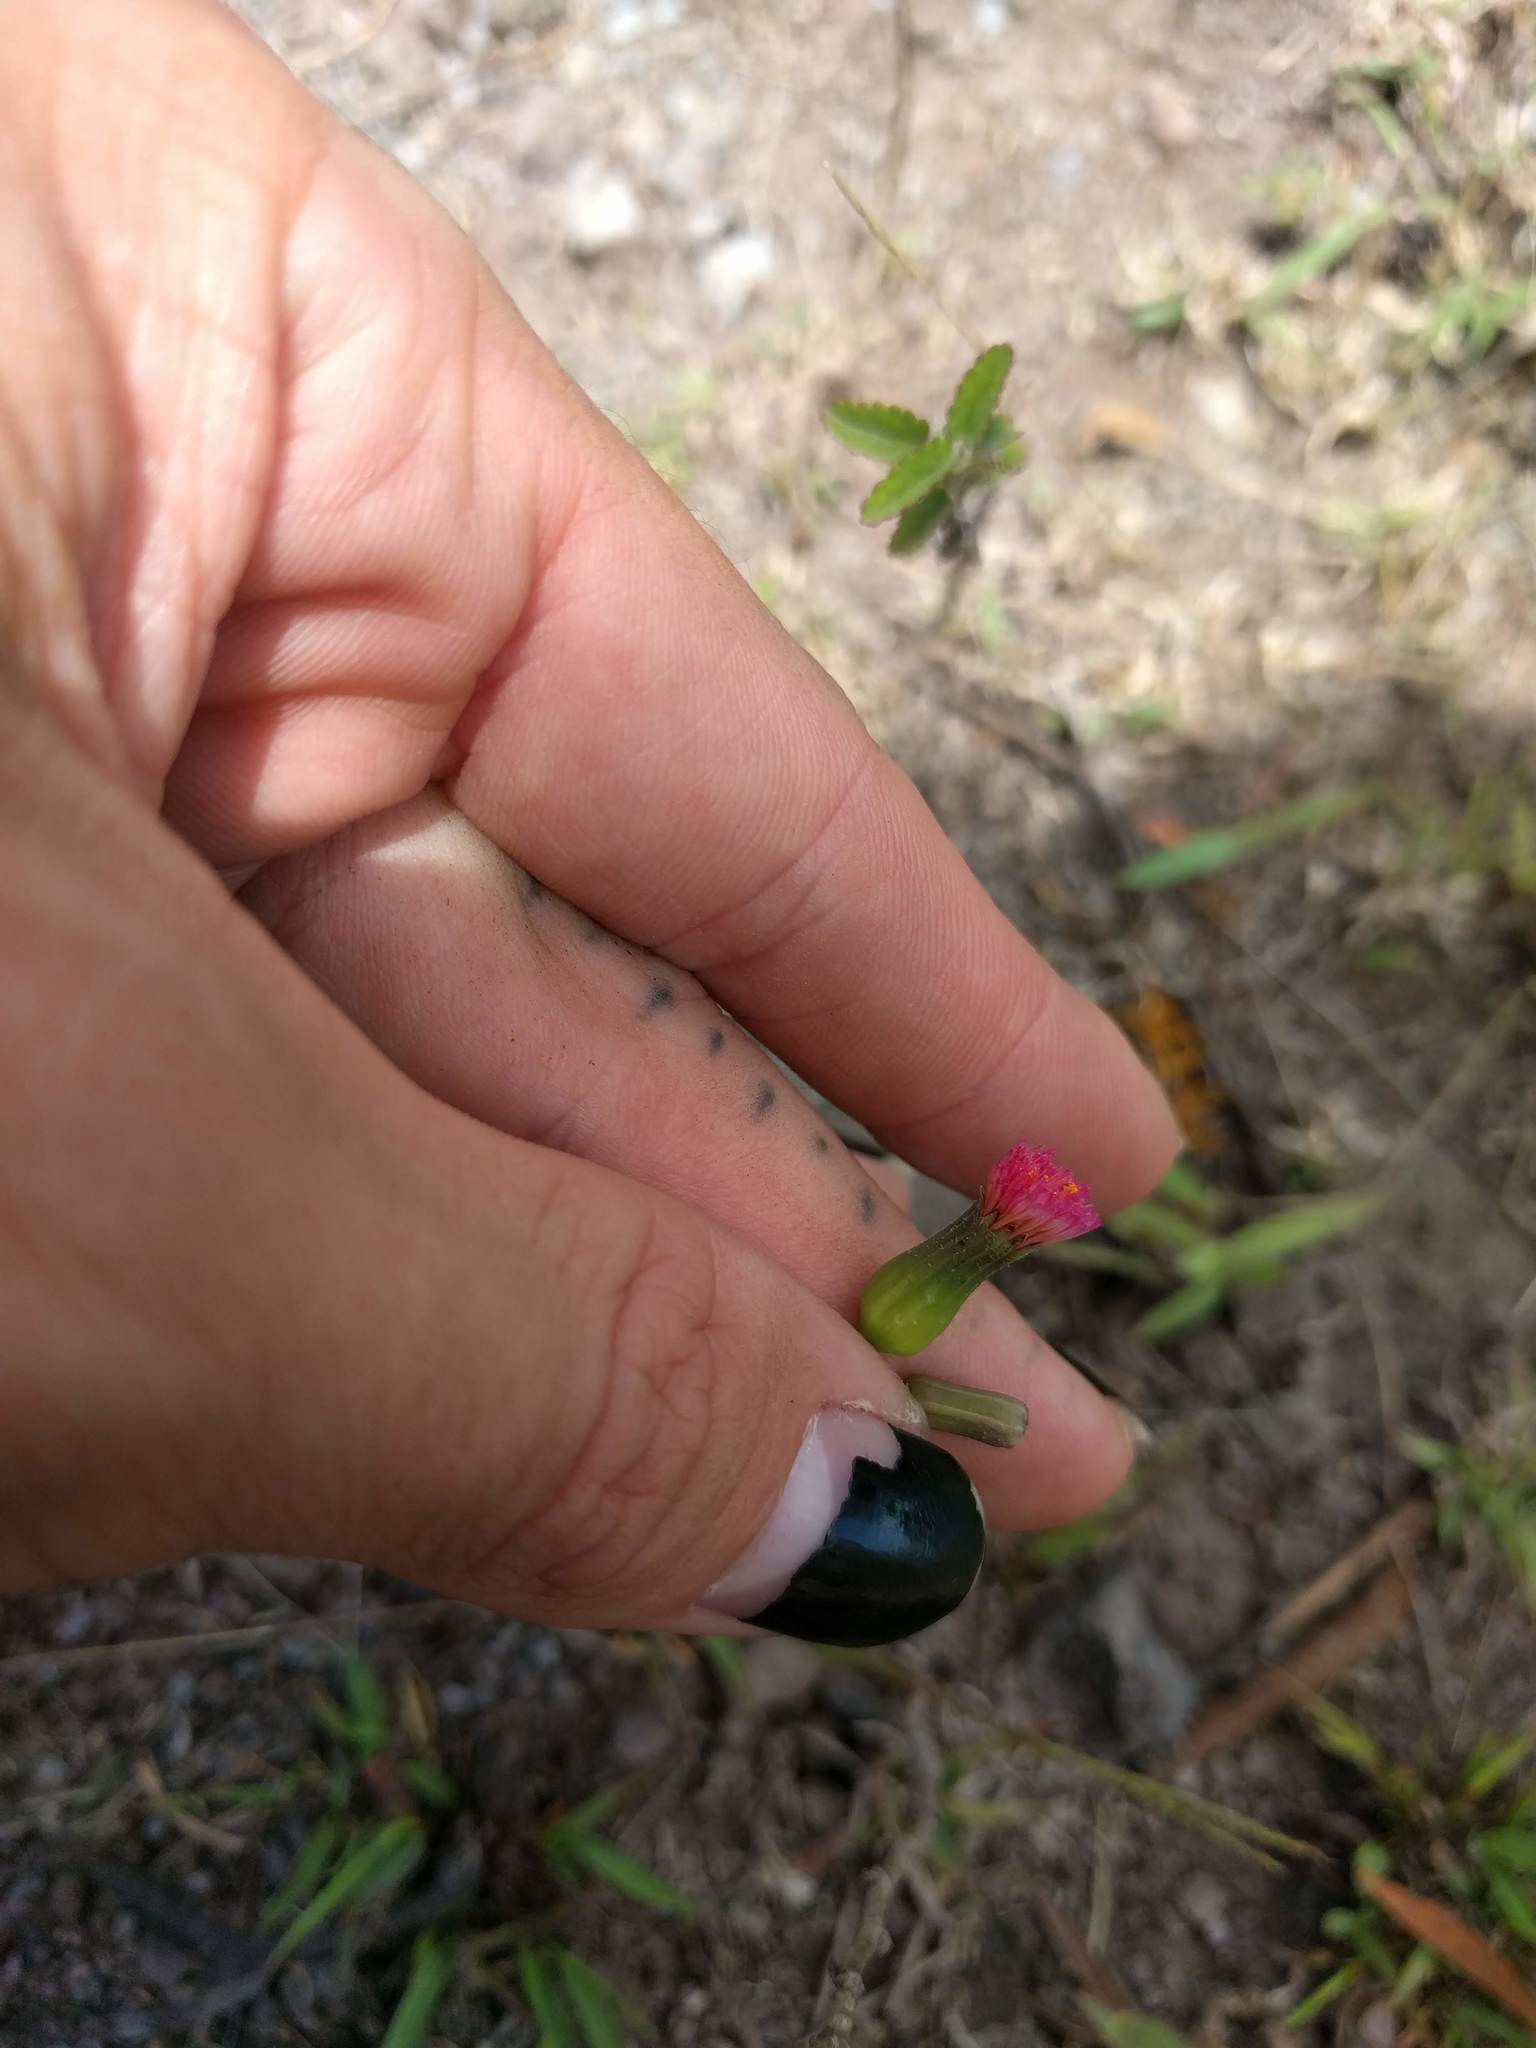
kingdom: Plantae
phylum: Tracheophyta
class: Magnoliopsida
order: Asterales
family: Asteraceae
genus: Emilia
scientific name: Emilia sonchifolia
